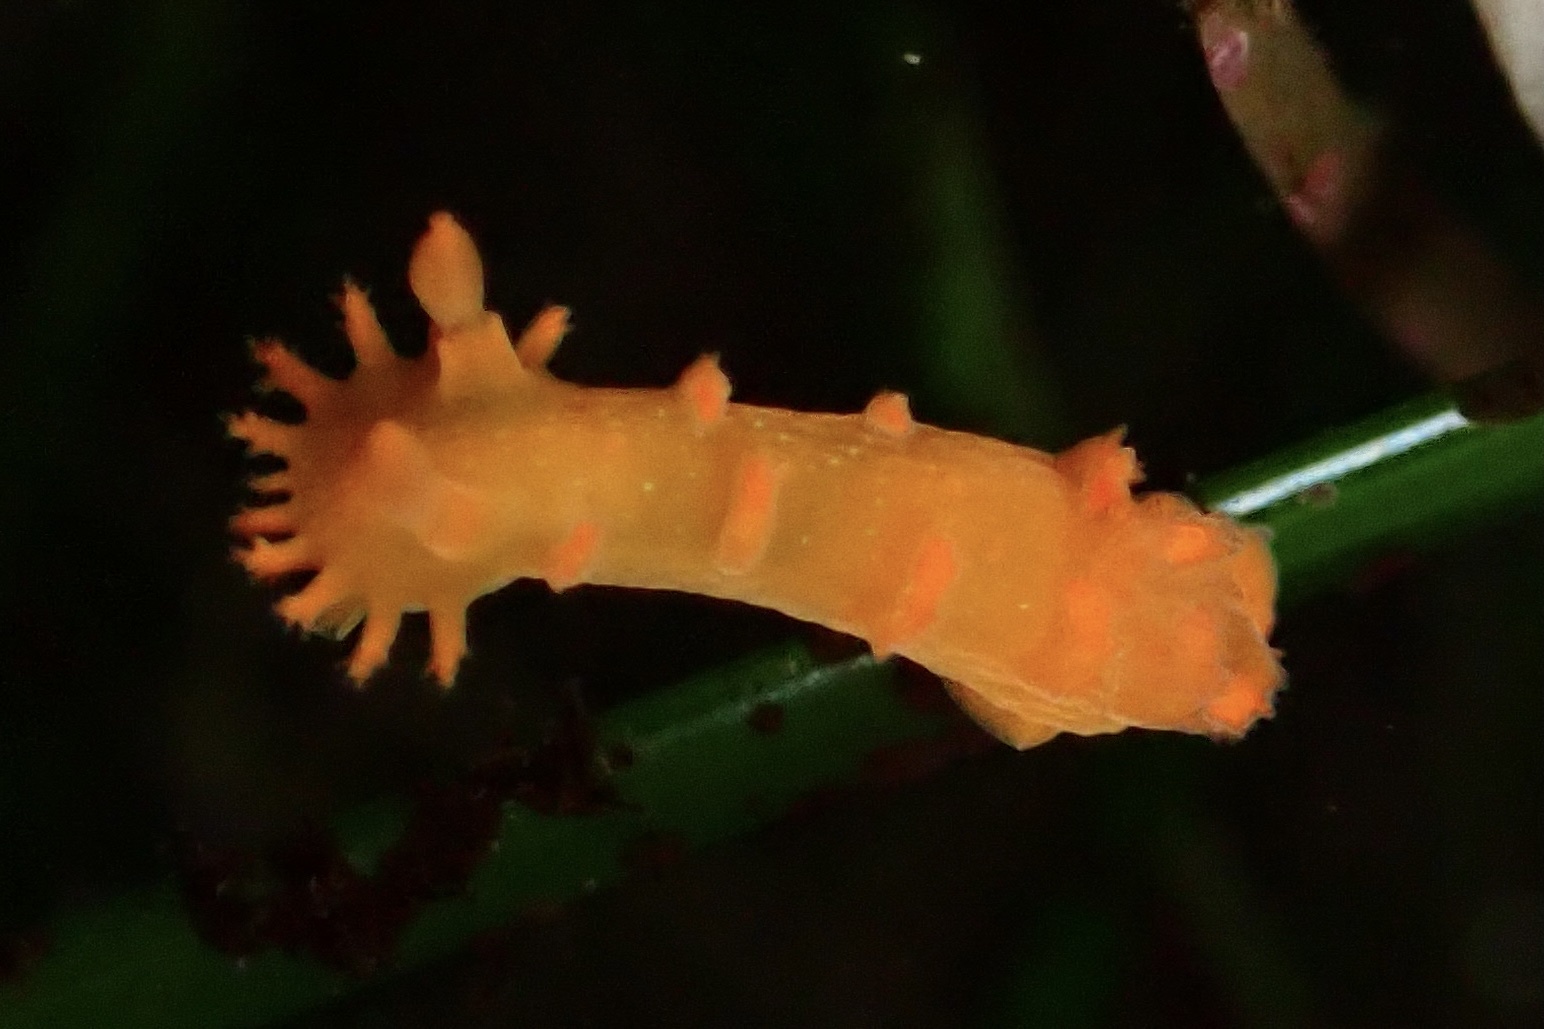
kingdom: Animalia
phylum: Mollusca
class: Gastropoda
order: Nudibranchia
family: Polyceridae
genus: Triopha
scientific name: Triopha maculata
